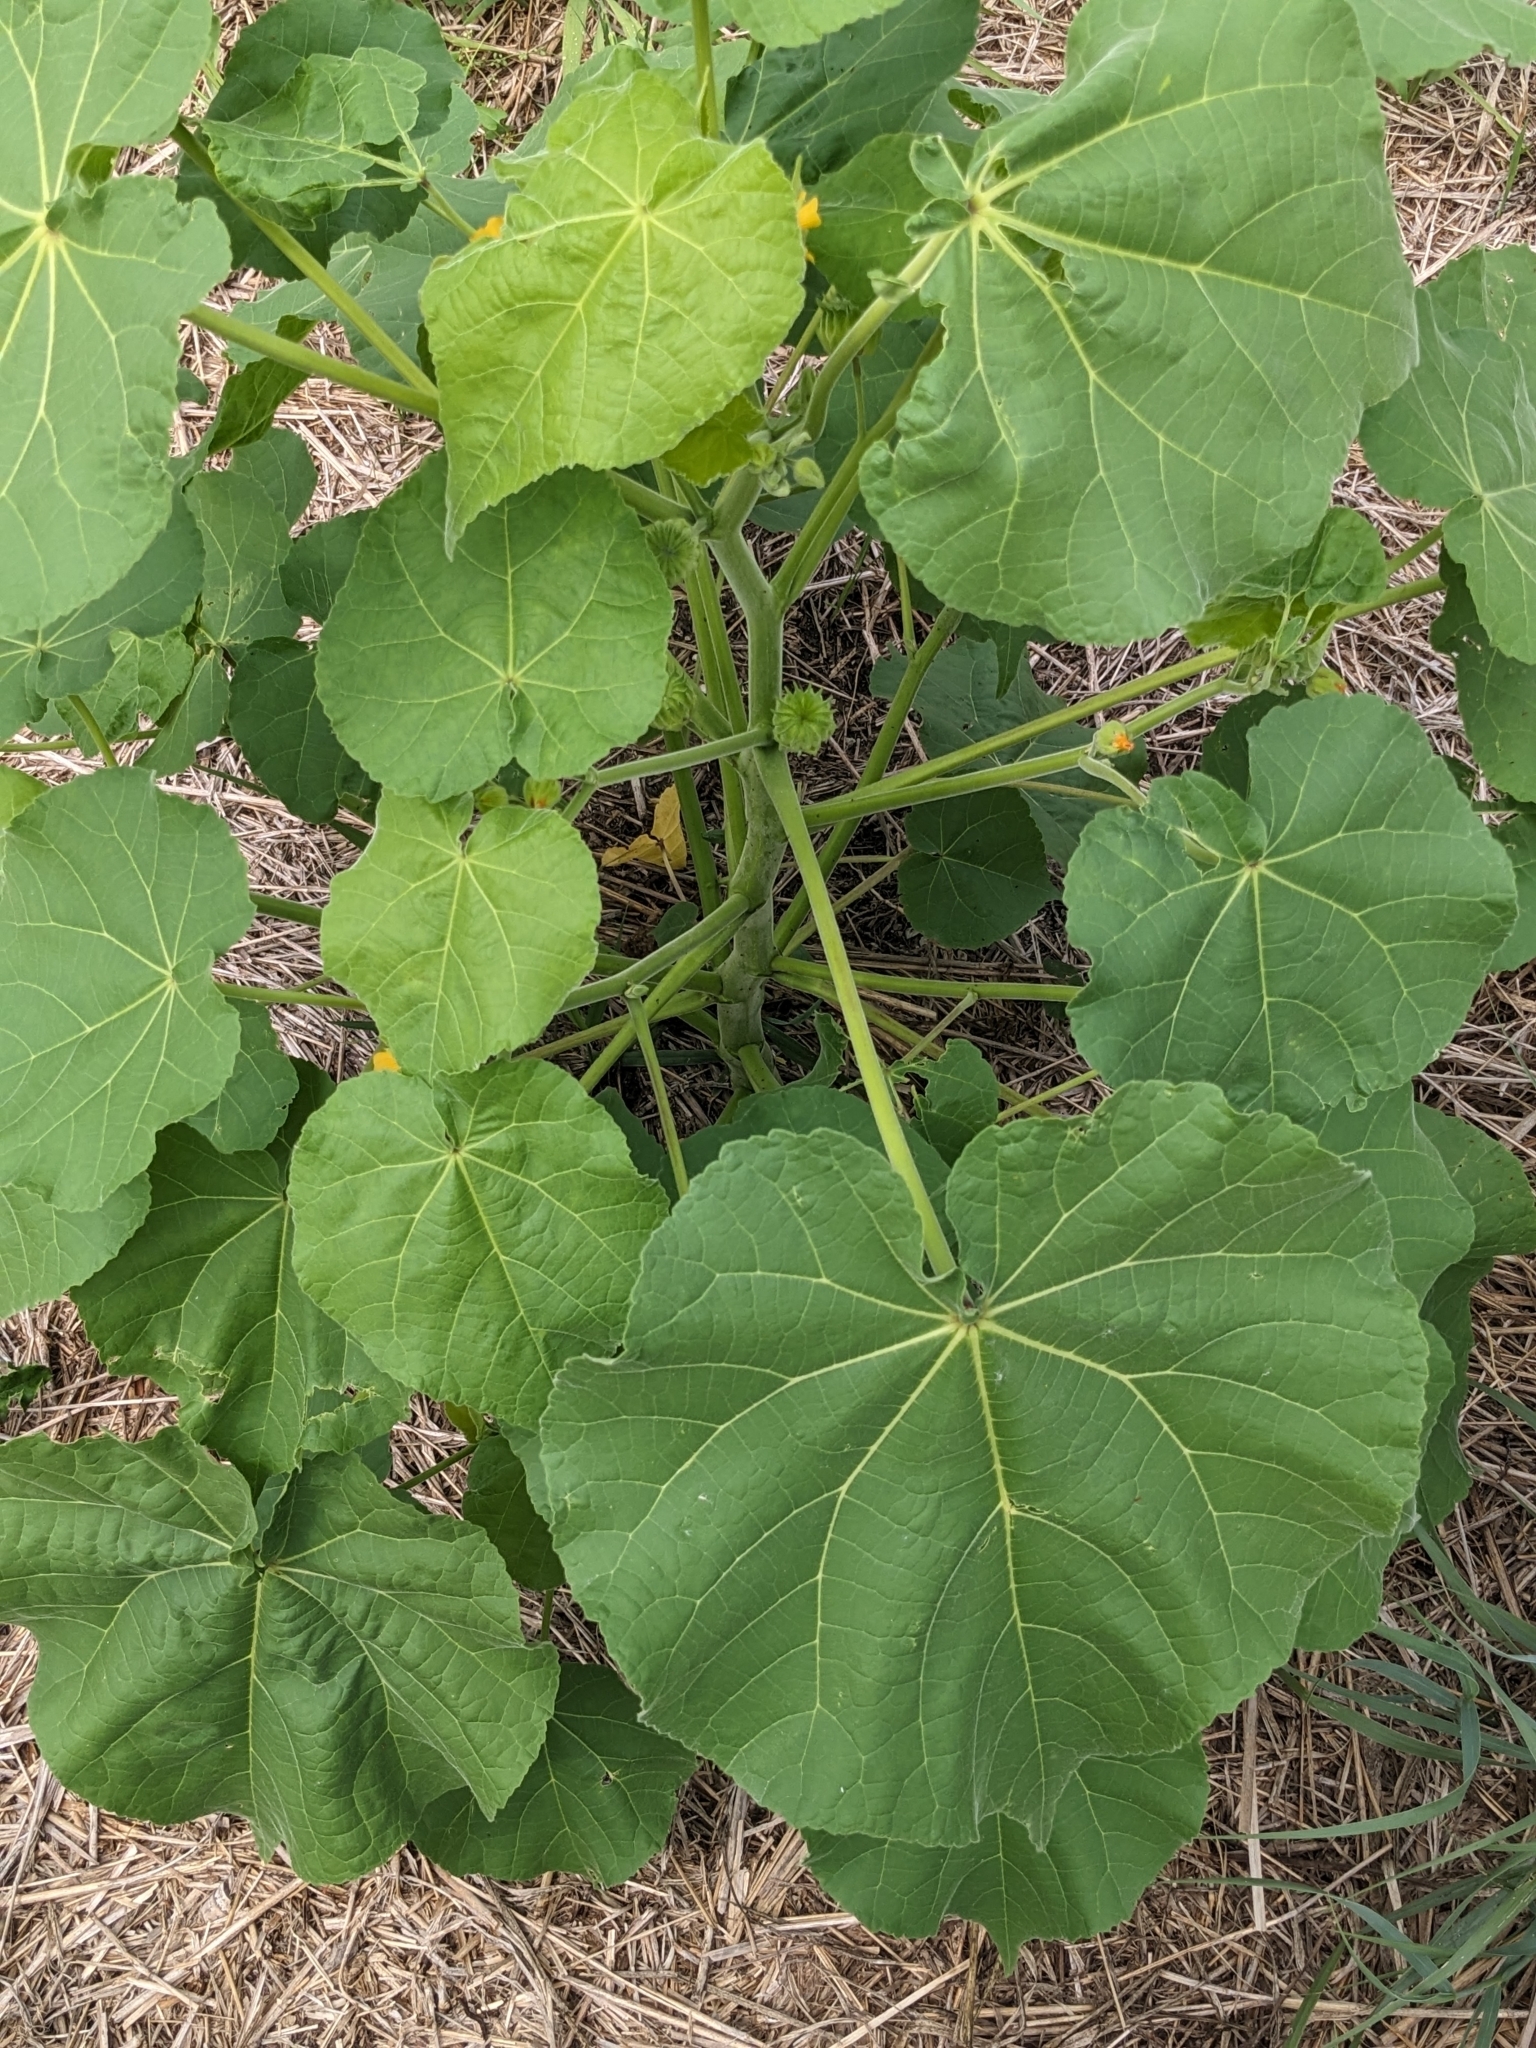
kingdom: Plantae
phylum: Tracheophyta
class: Magnoliopsida
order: Malvales
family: Malvaceae
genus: Abutilon
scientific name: Abutilon theophrasti
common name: Velvetleaf
